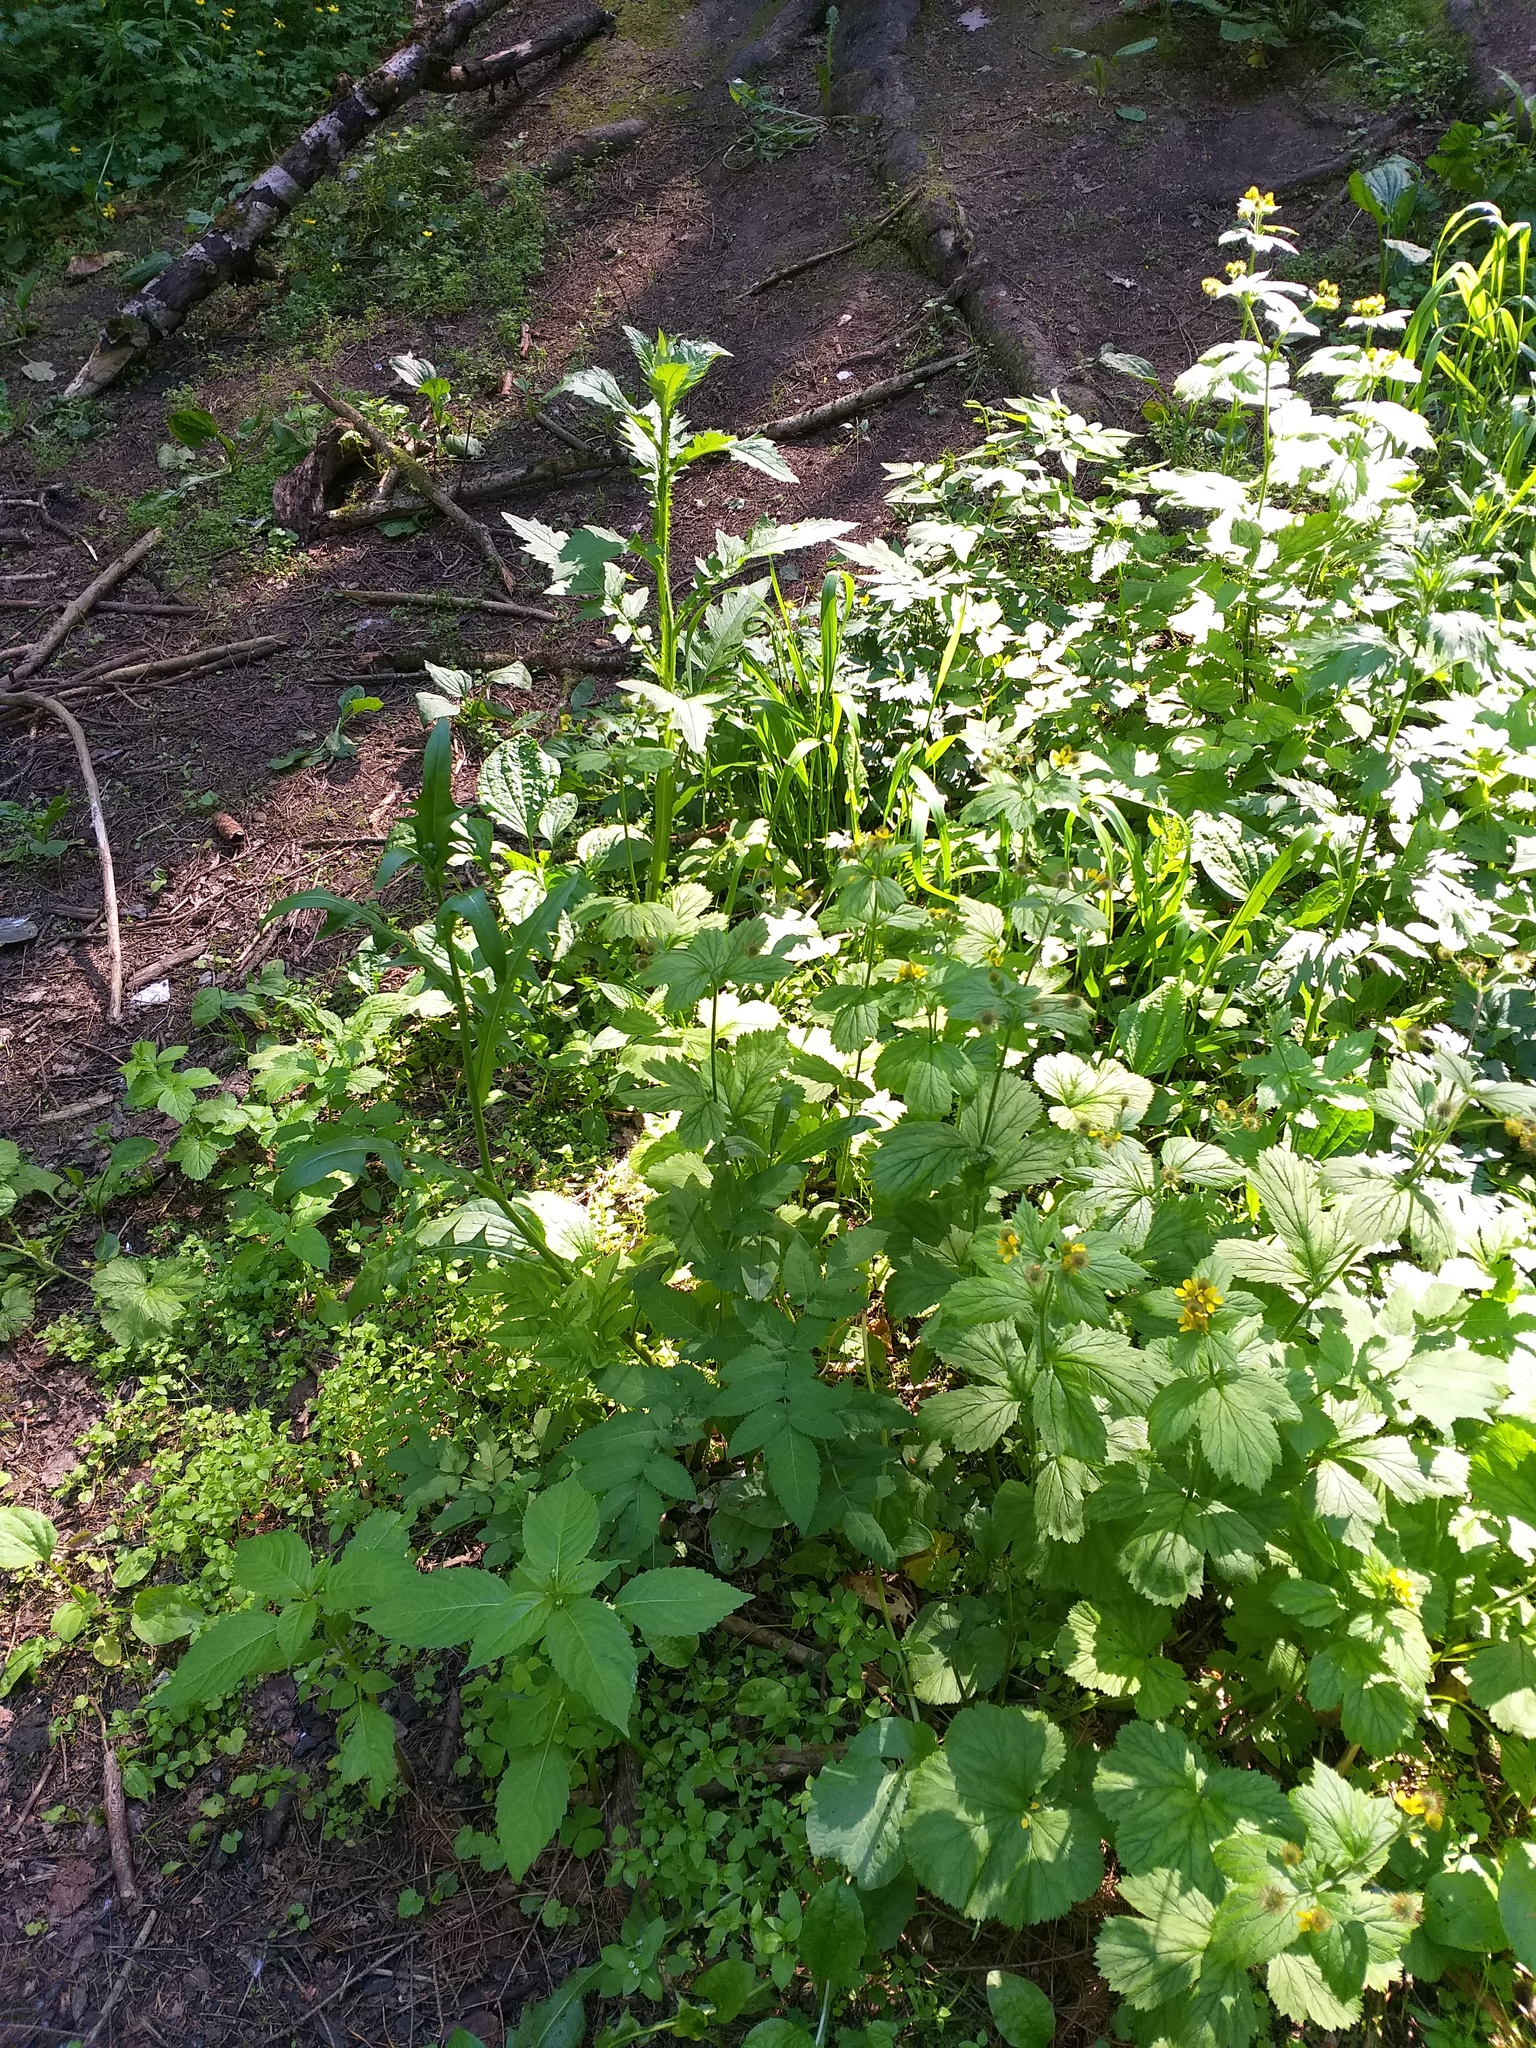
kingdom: Plantae
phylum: Tracheophyta
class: Magnoliopsida
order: Rosales
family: Rosaceae
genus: Geum
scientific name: Geum macrophyllum
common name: Large-leaved avens
